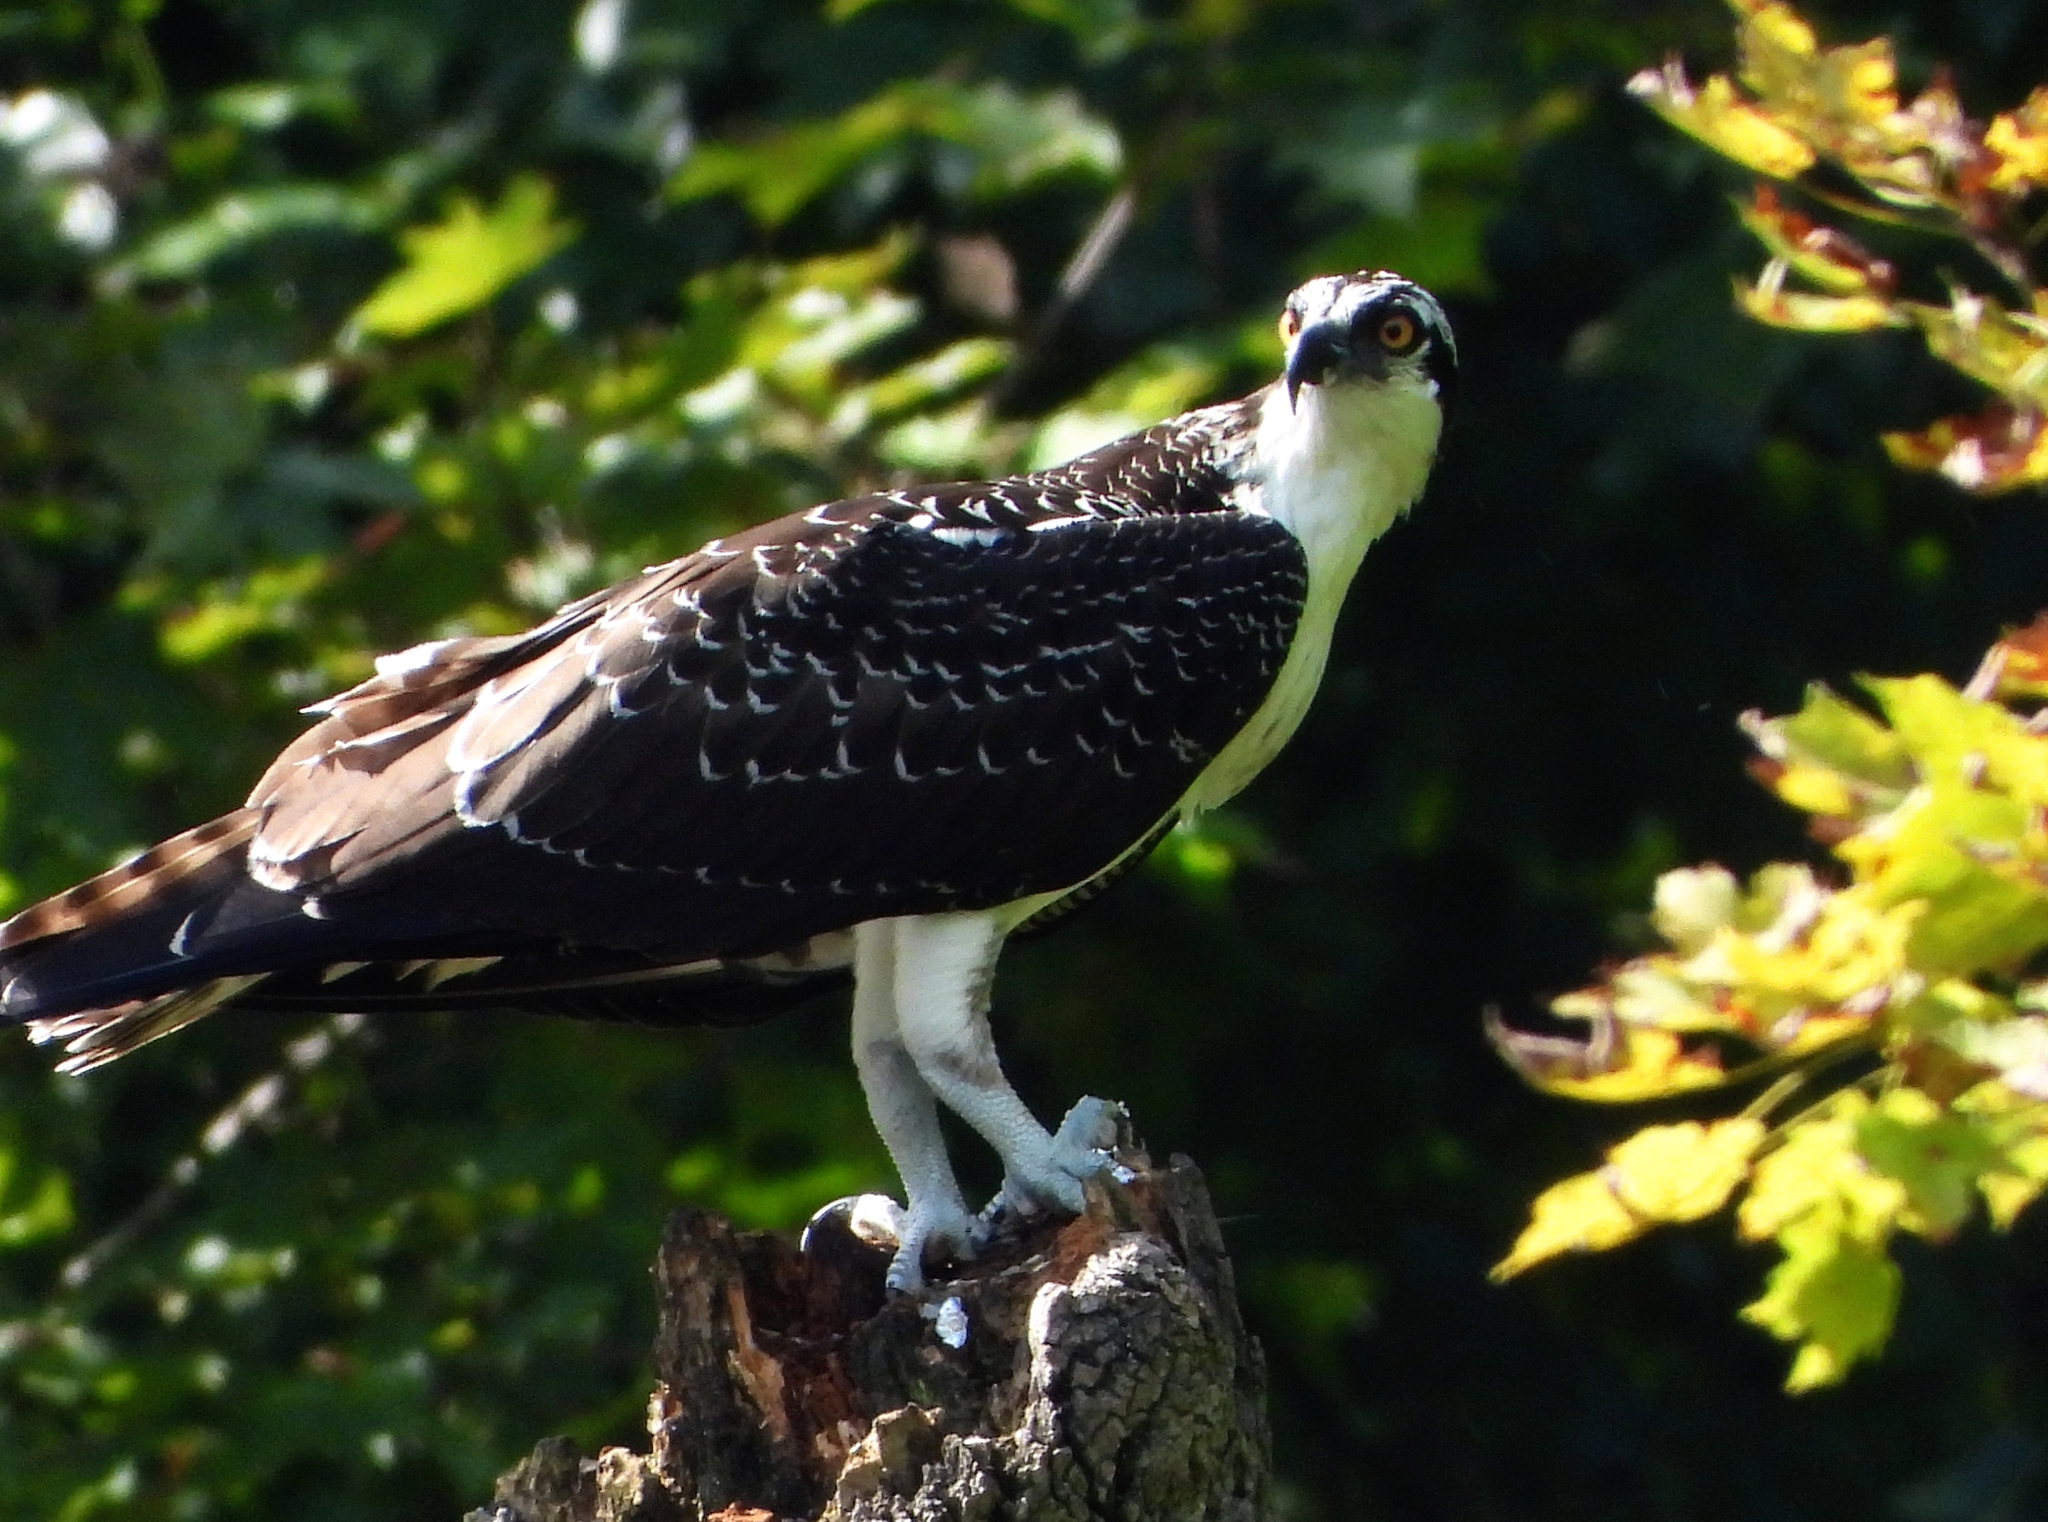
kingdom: Animalia
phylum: Chordata
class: Aves
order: Accipitriformes
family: Pandionidae
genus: Pandion
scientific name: Pandion haliaetus
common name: Osprey
